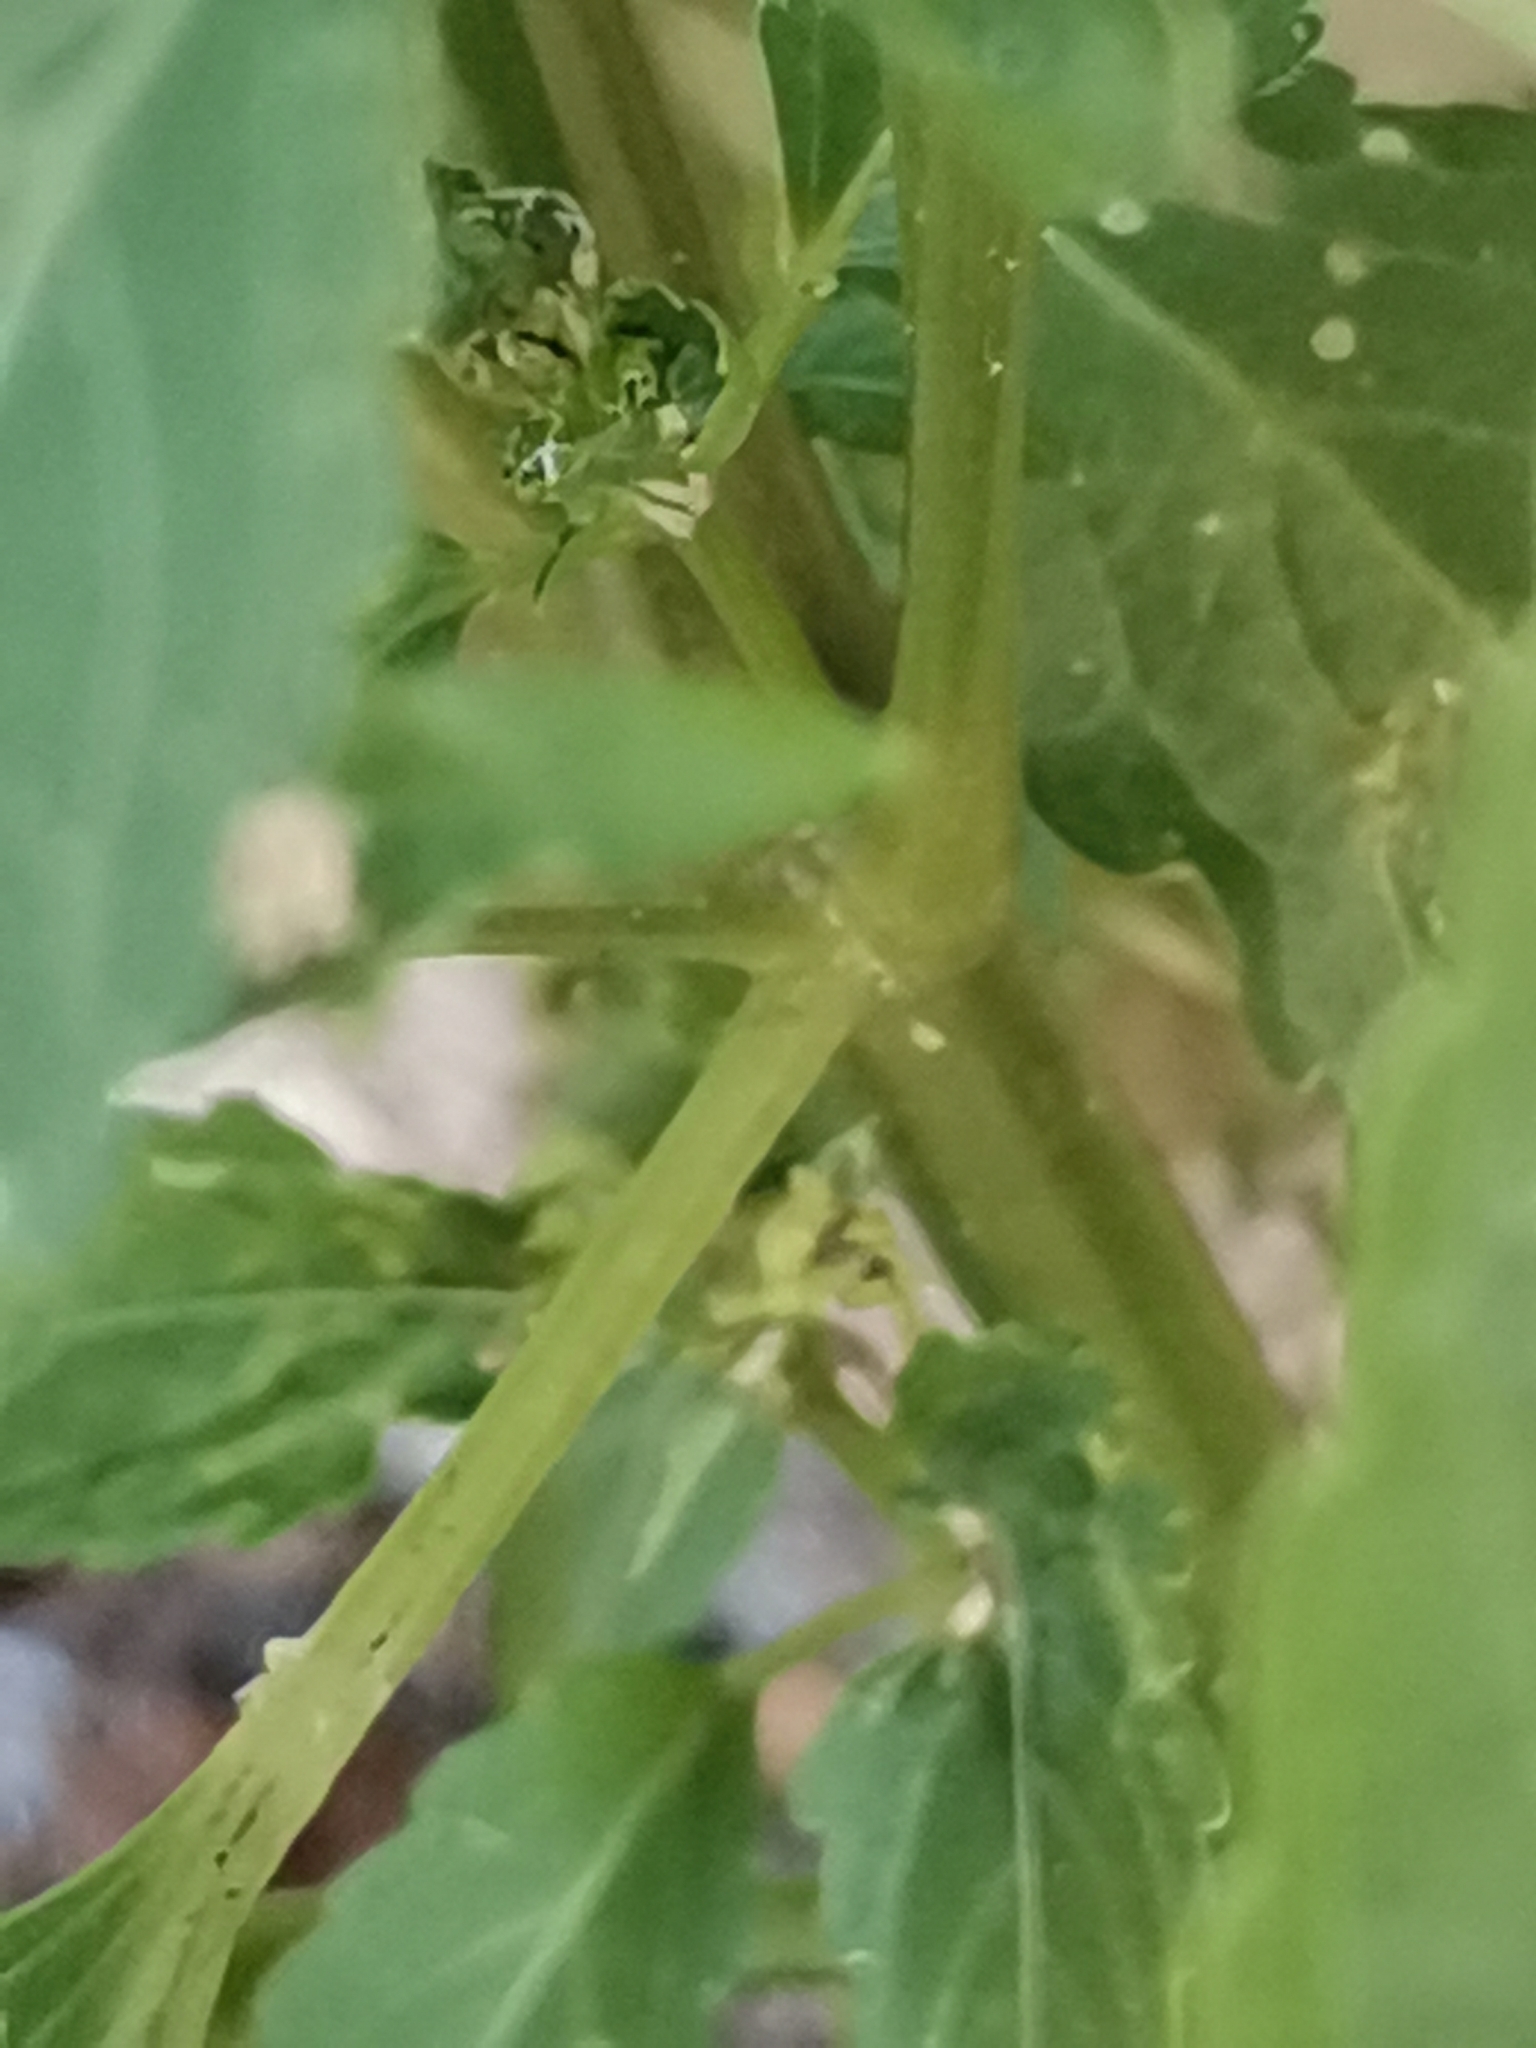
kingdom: Plantae
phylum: Tracheophyta
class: Magnoliopsida
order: Malpighiales
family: Euphorbiaceae
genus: Mercurialis
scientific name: Mercurialis annua
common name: Annual mercury
